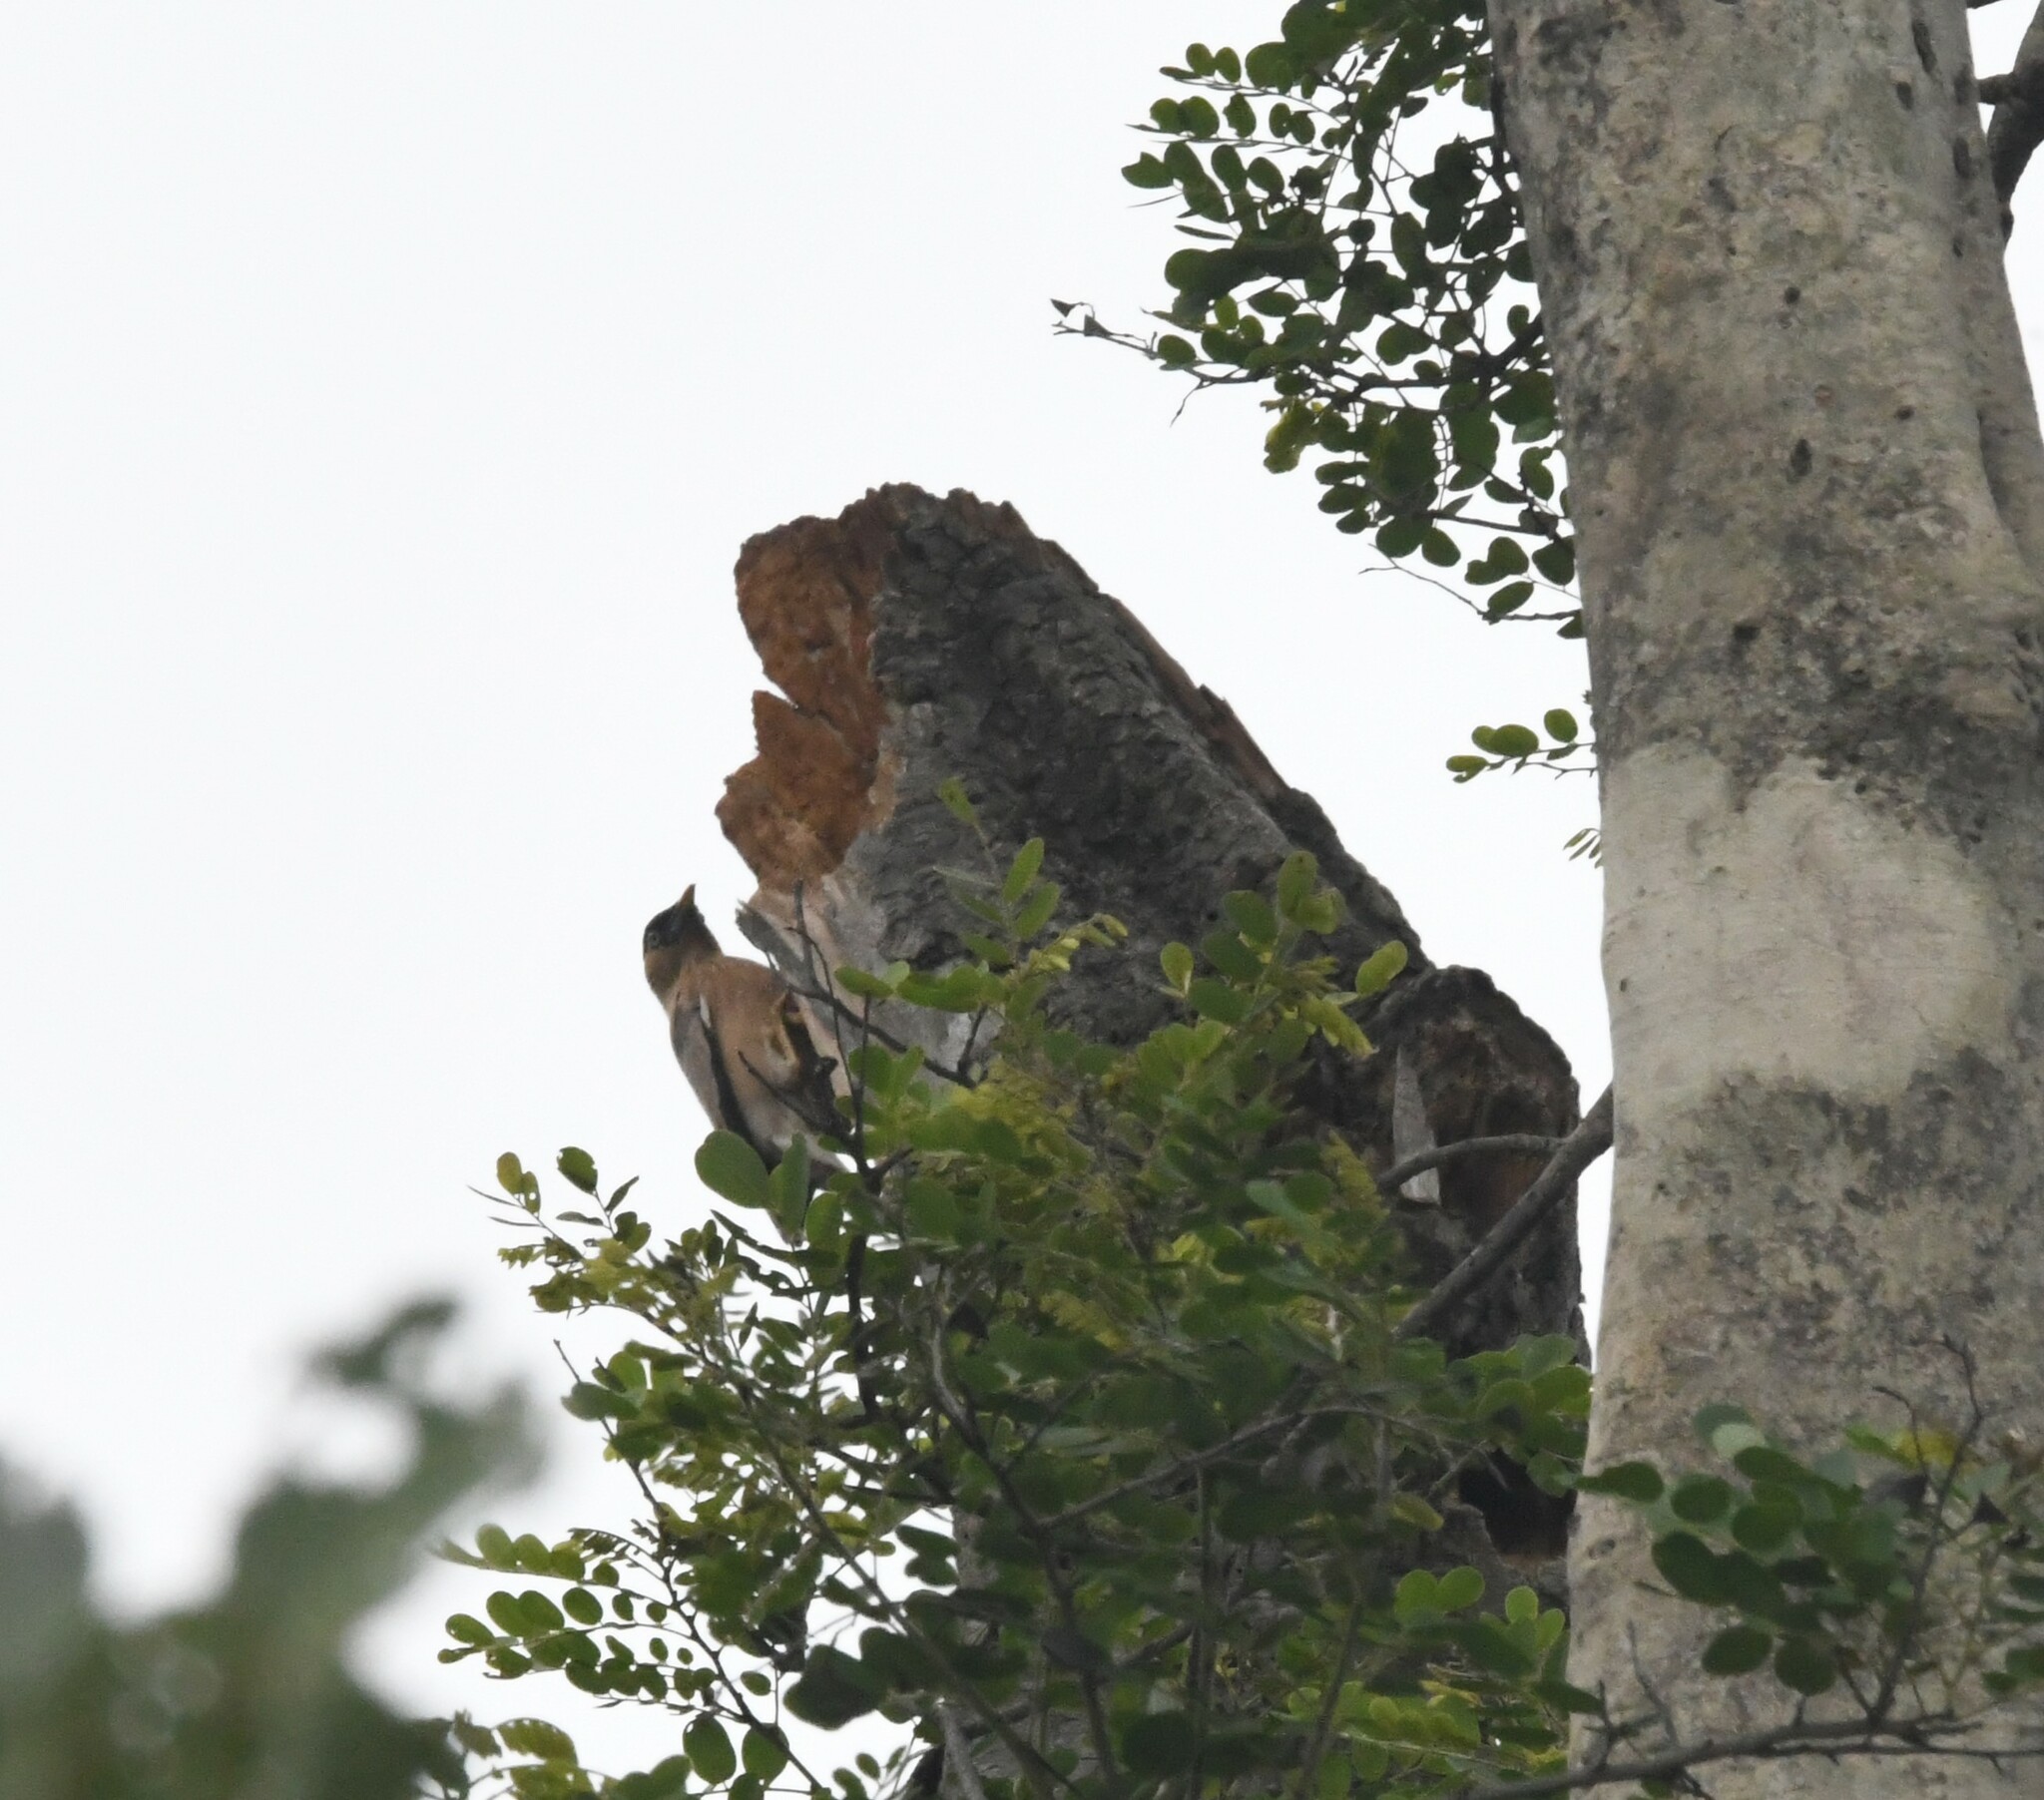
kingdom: Animalia
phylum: Chordata
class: Aves
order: Passeriformes
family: Sturnidae
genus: Sturnia
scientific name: Sturnia pagodarum
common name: Brahminy starling
